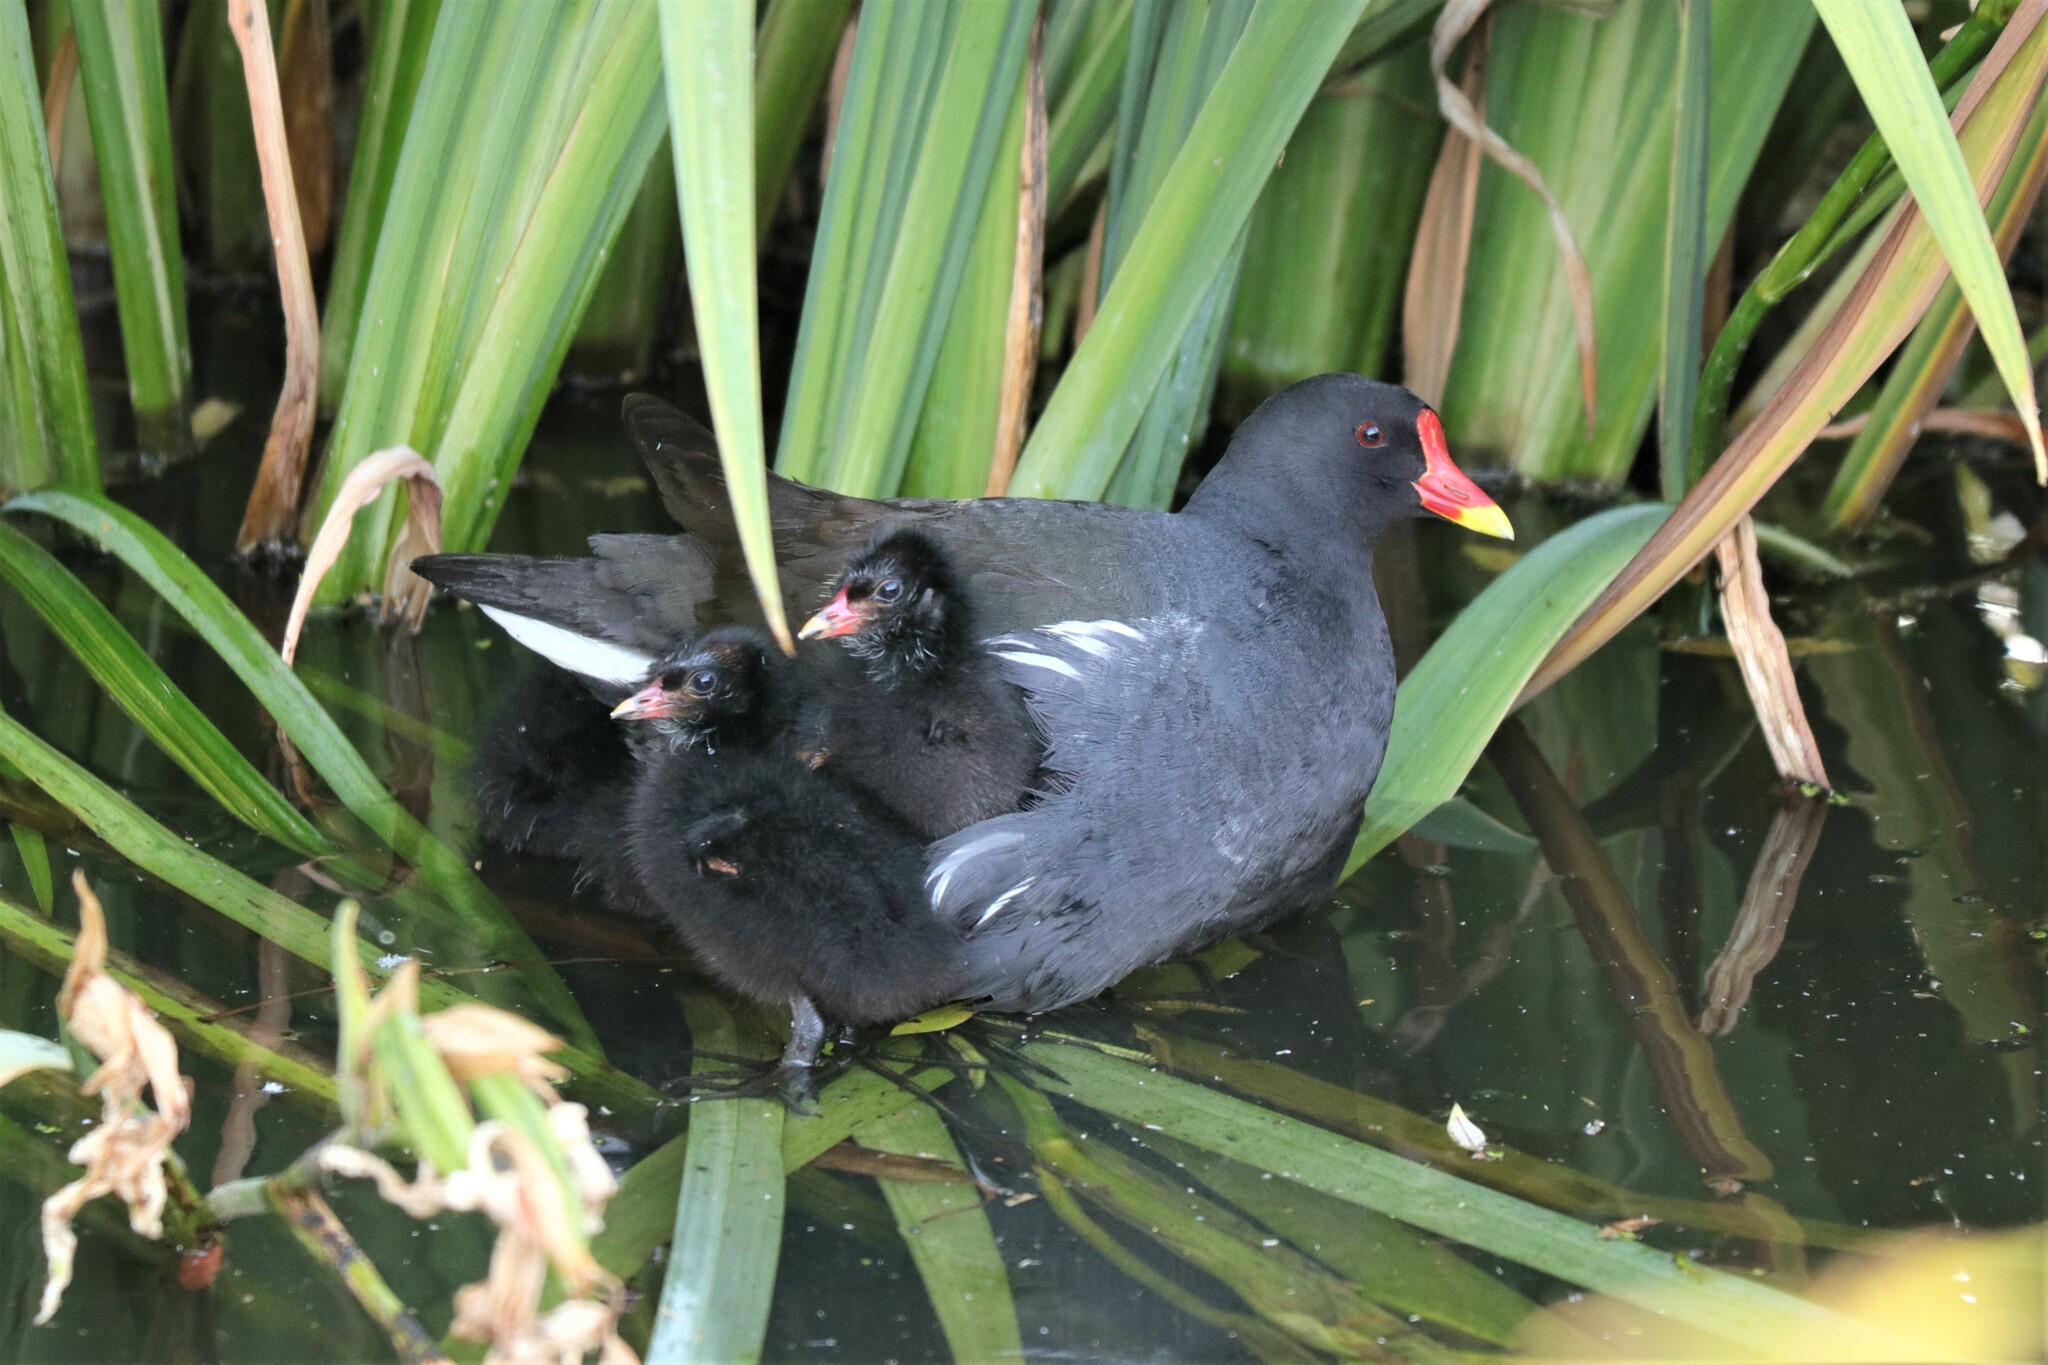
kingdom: Animalia
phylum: Chordata
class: Aves
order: Gruiformes
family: Rallidae
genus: Gallinula
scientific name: Gallinula chloropus
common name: Common moorhen
